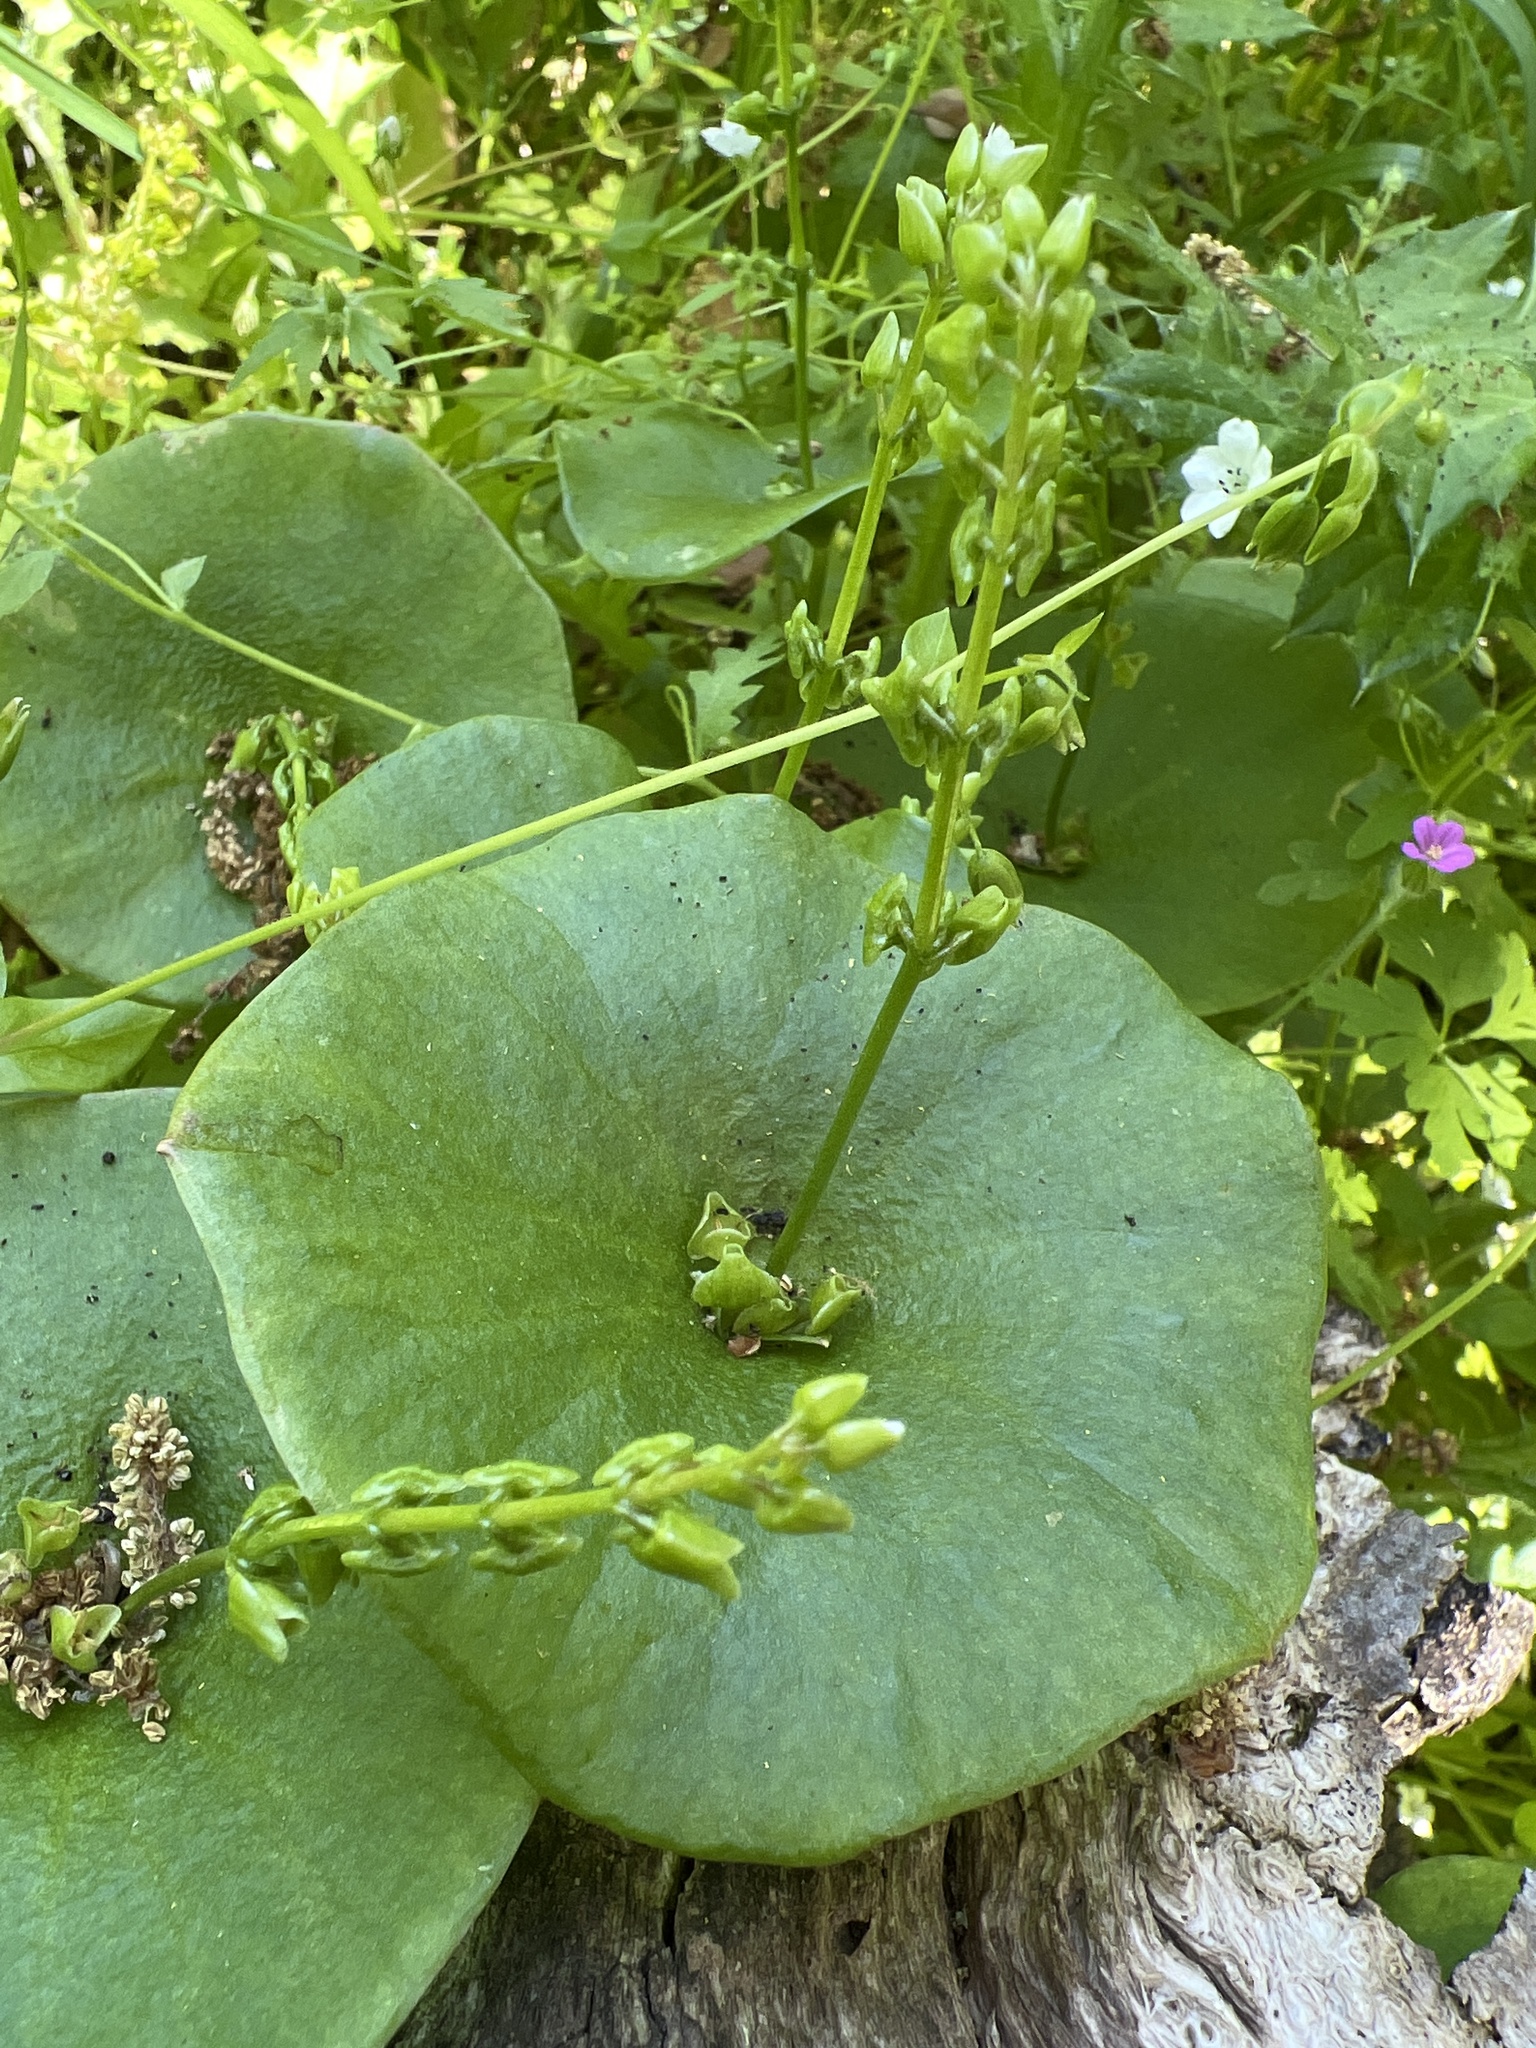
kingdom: Plantae
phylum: Tracheophyta
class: Magnoliopsida
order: Caryophyllales
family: Montiaceae
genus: Claytonia
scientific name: Claytonia perfoliata
